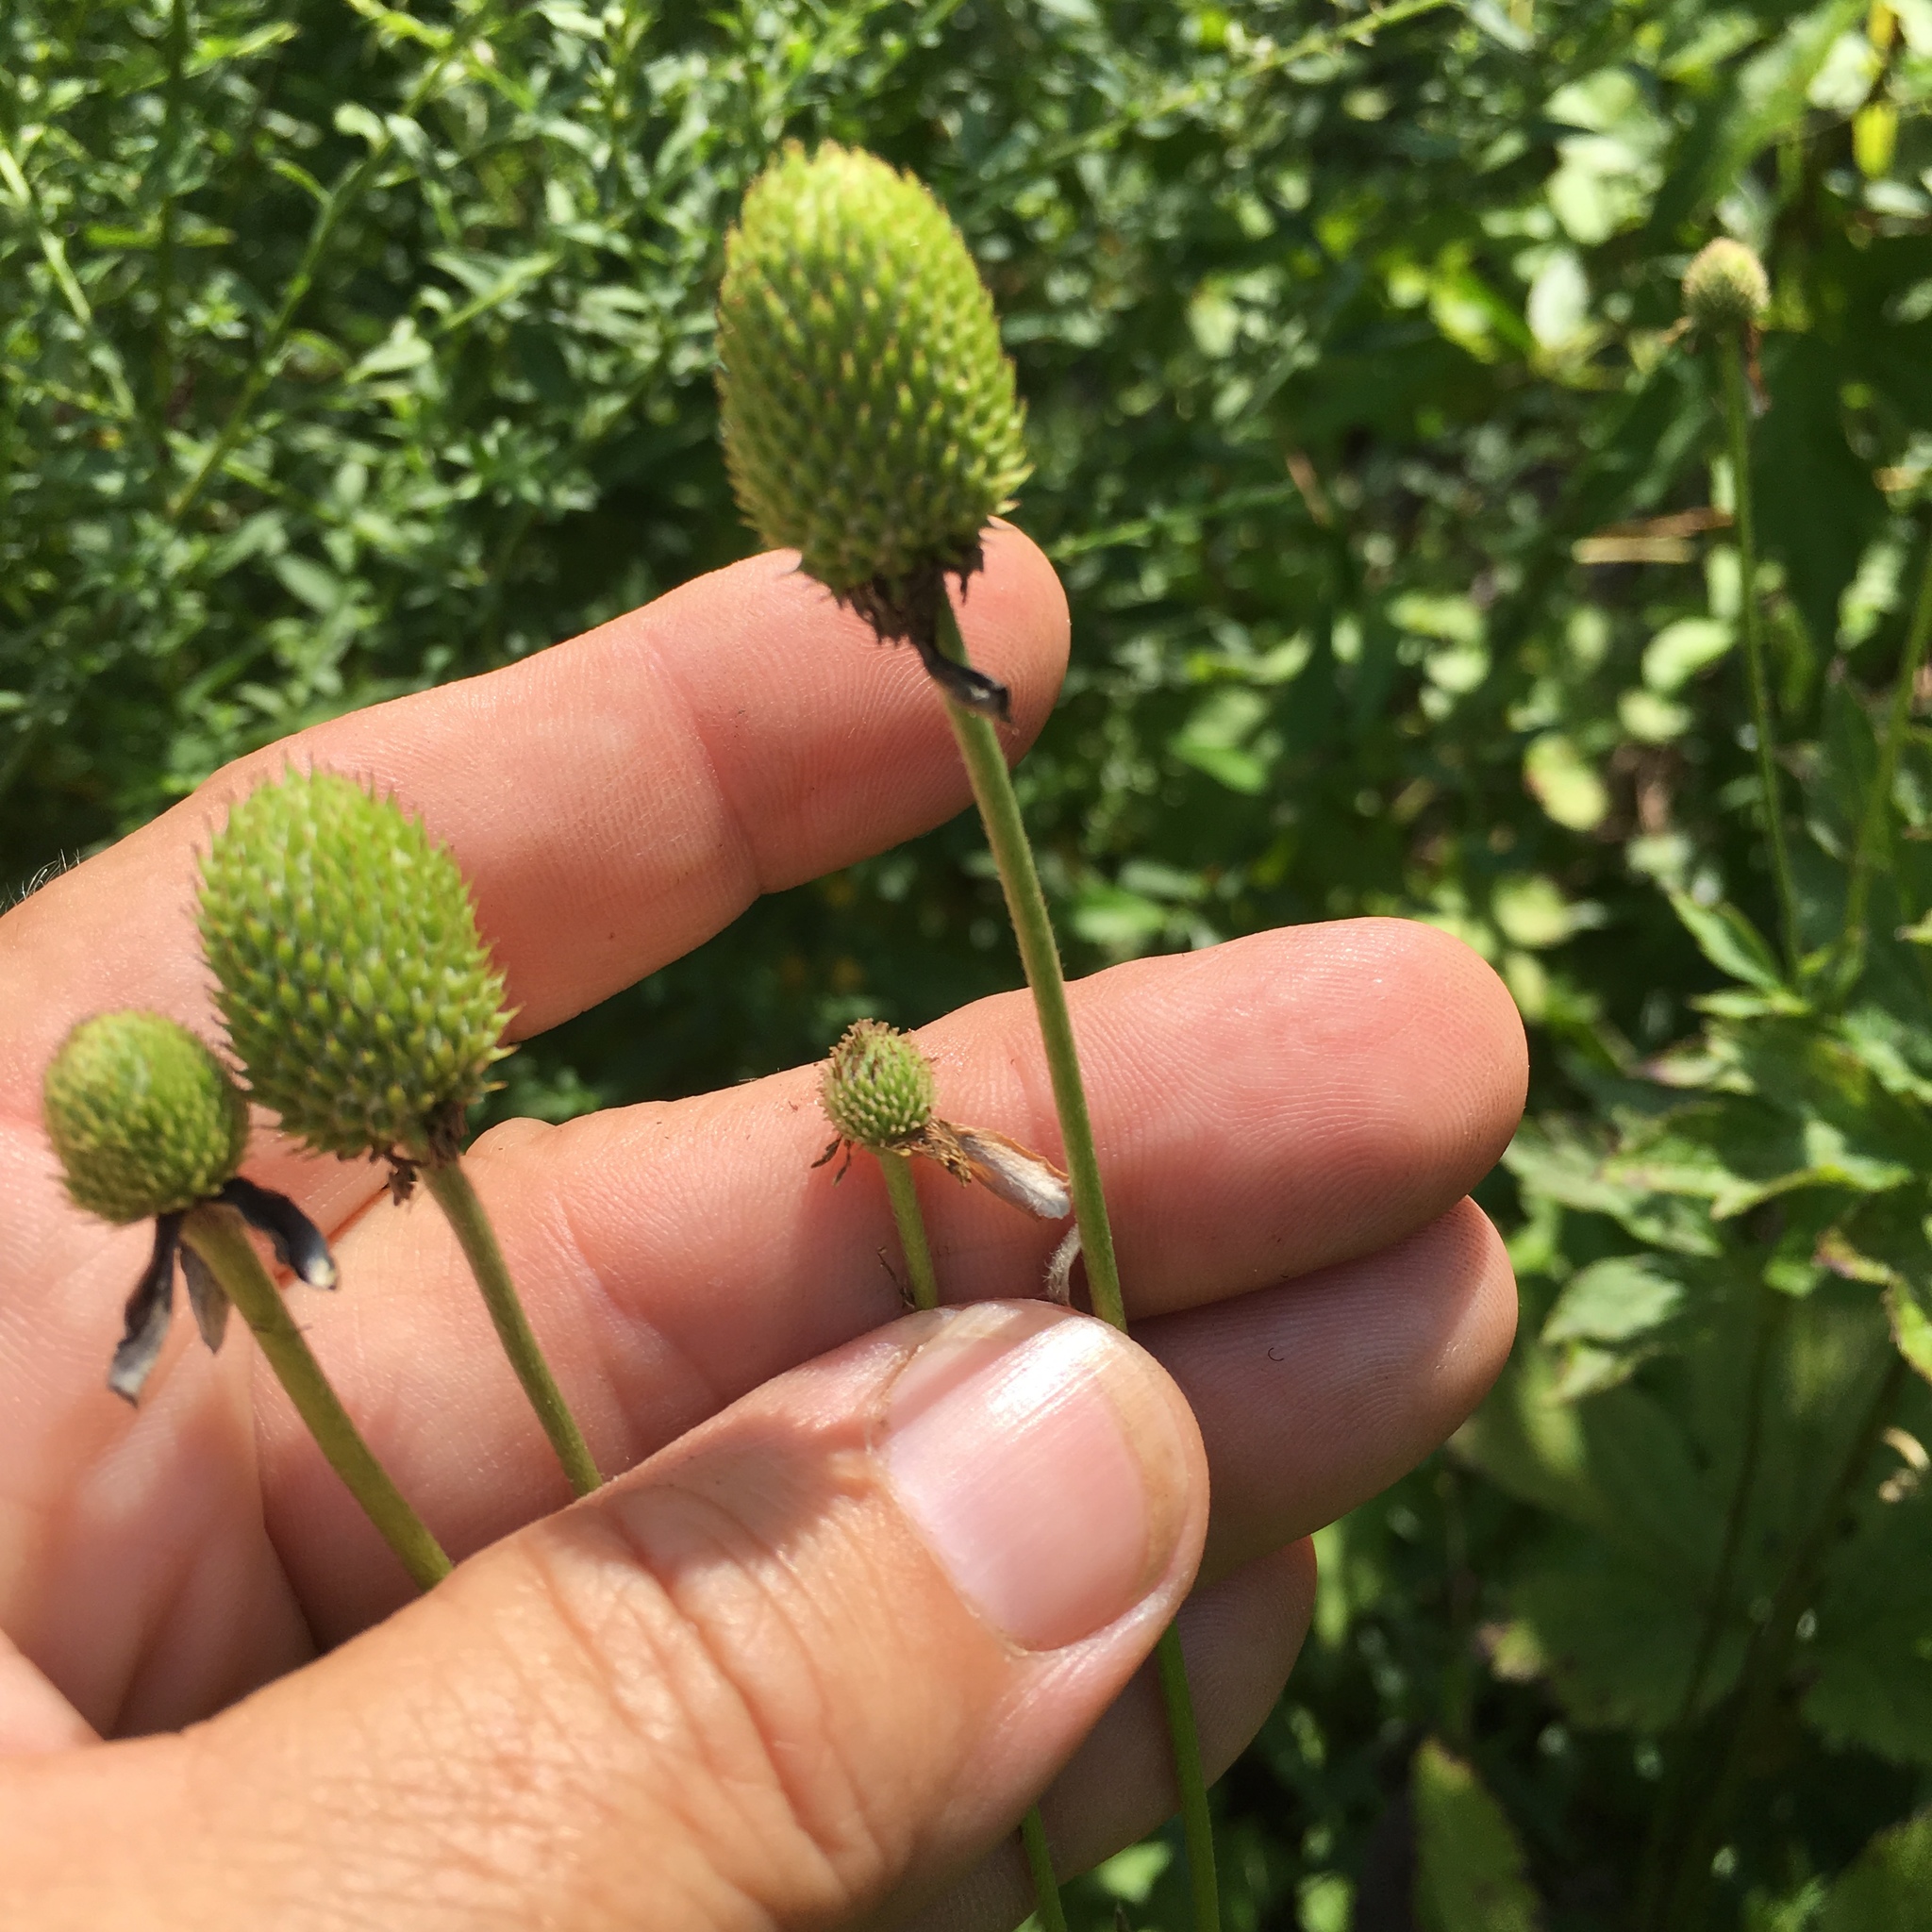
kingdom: Plantae
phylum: Tracheophyta
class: Magnoliopsida
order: Ranunculales
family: Ranunculaceae
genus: Anemone
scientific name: Anemone virginiana
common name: Tall anemone
